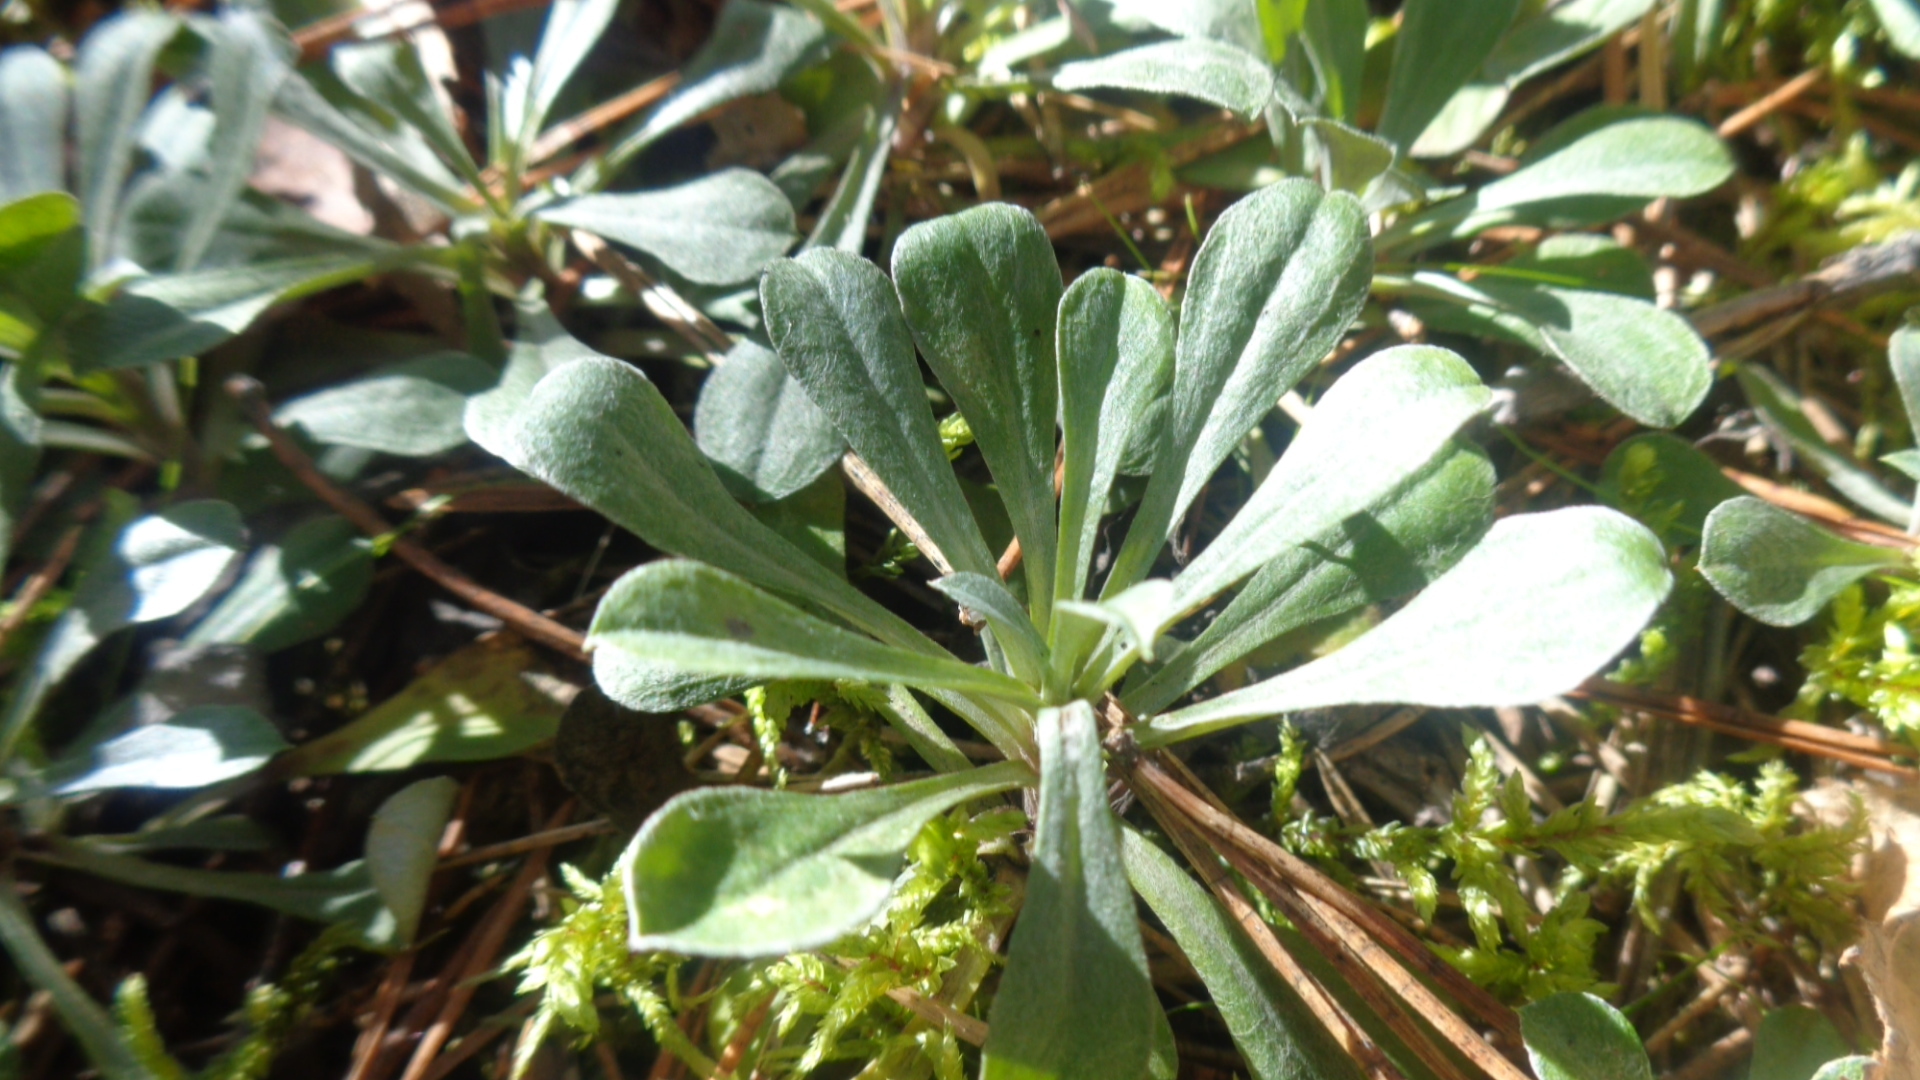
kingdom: Plantae
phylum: Tracheophyta
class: Magnoliopsida
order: Asterales
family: Asteraceae
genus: Antennaria
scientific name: Antennaria dioica
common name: Mountain everlasting
